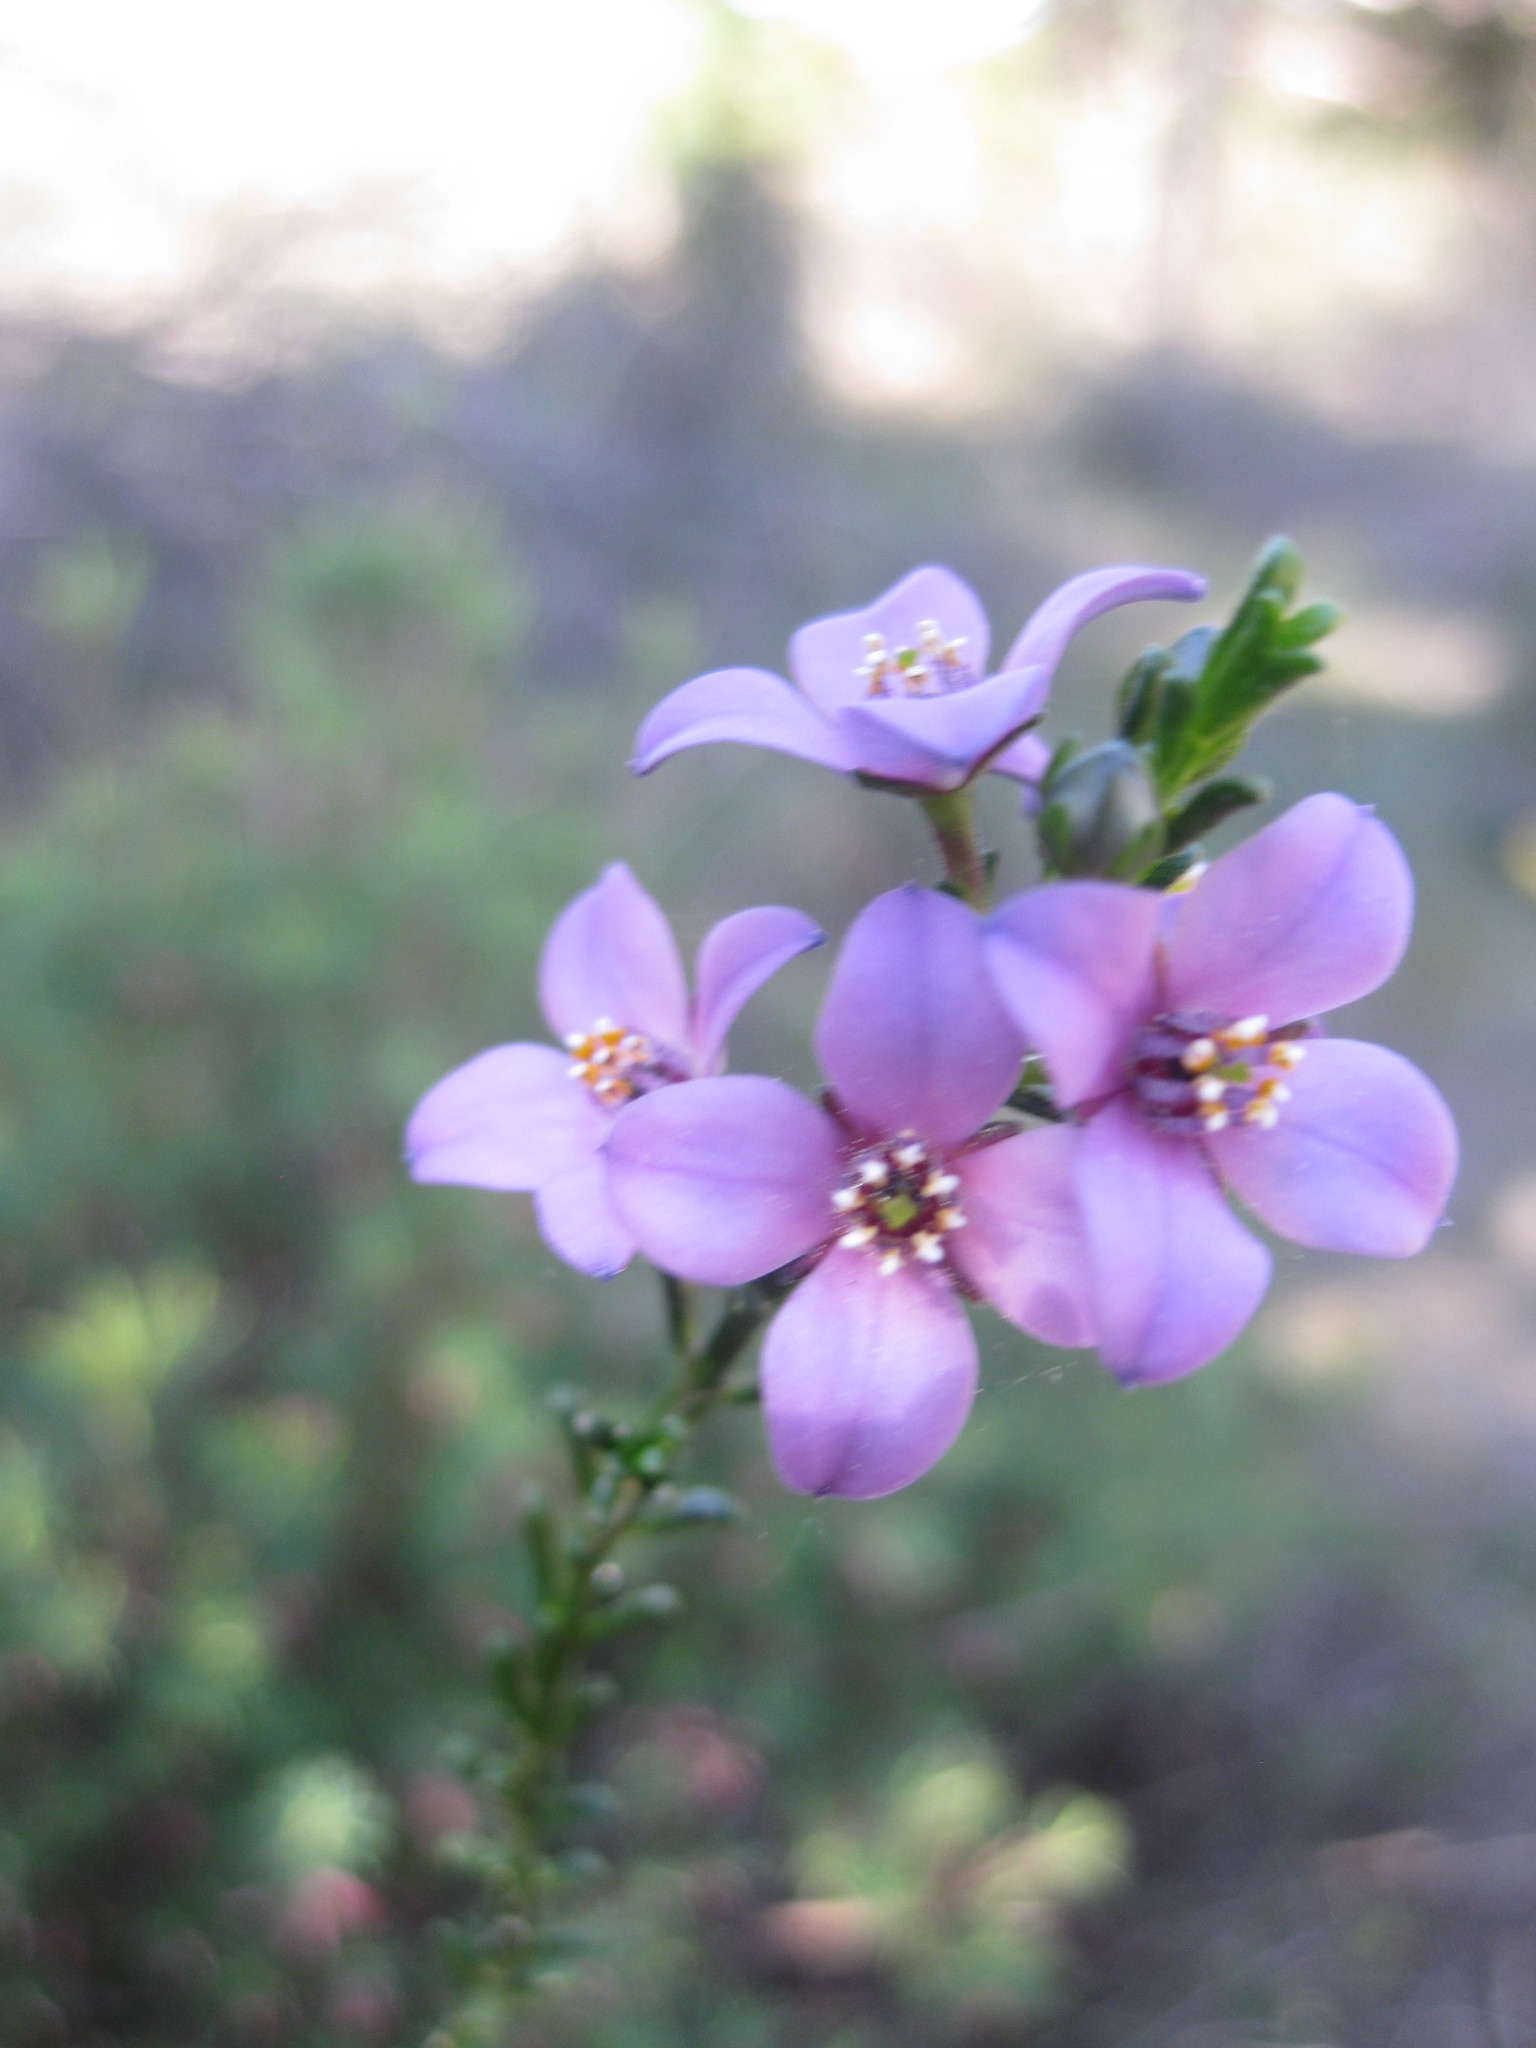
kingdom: Plantae
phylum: Tracheophyta
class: Magnoliopsida
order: Sapindales
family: Rutaceae
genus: Cyanothamnus
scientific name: Cyanothamnus coerulescens
